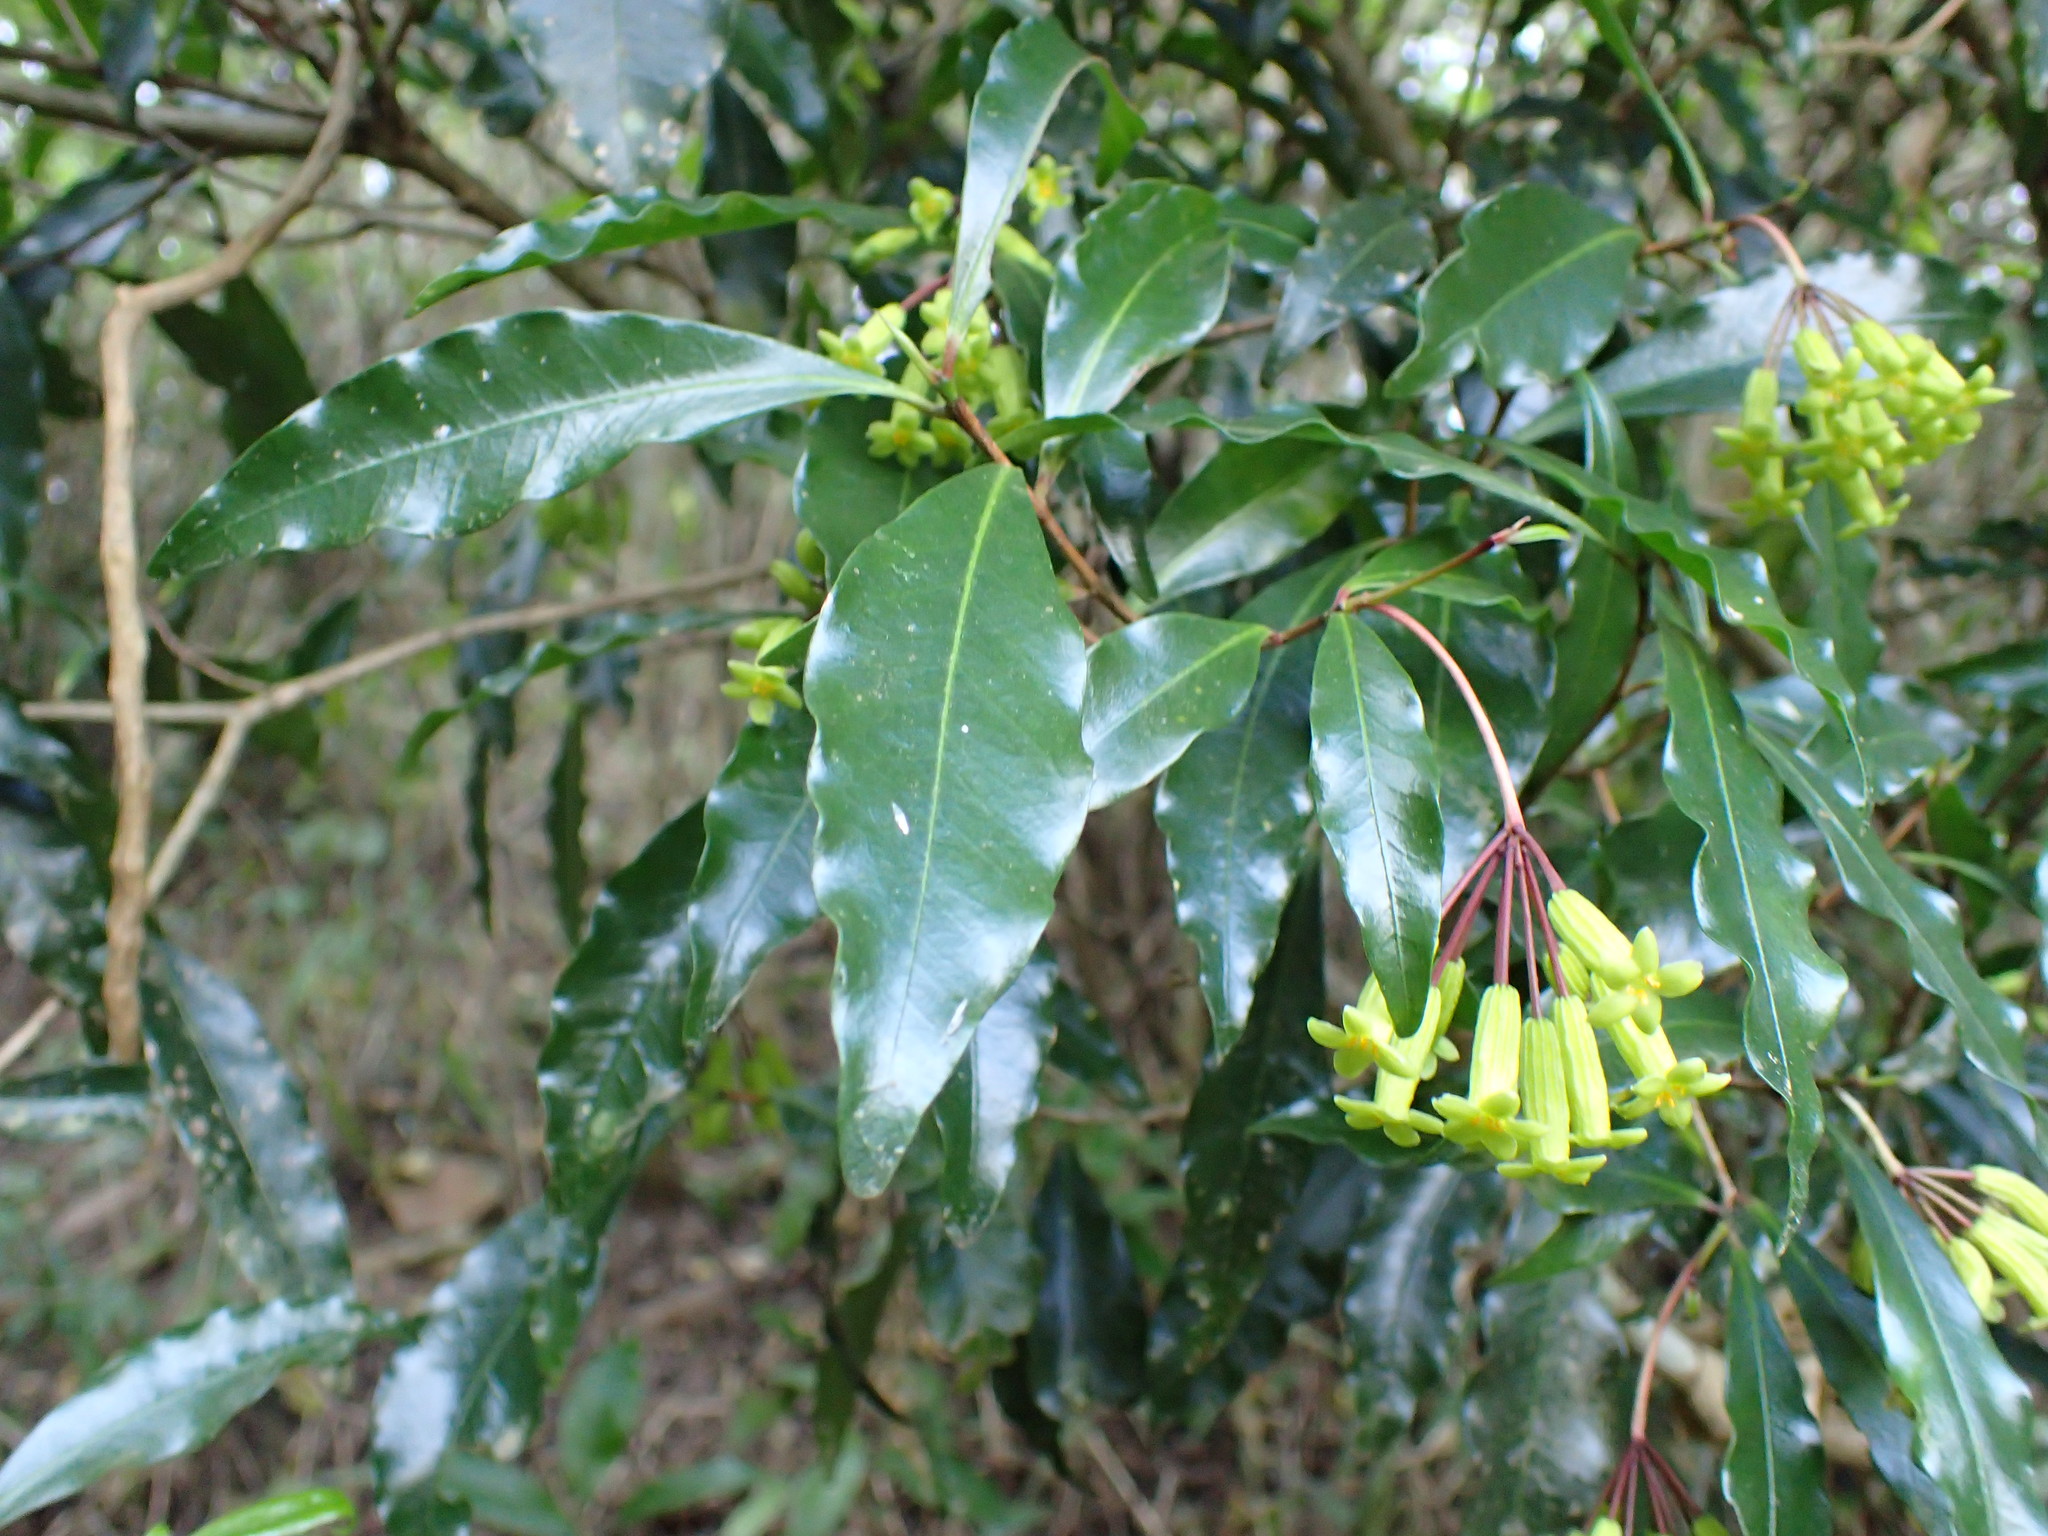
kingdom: Plantae
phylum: Tracheophyta
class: Magnoliopsida
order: Malvales
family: Thymelaeaceae
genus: Peddiea
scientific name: Peddiea africana
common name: Poison olive
